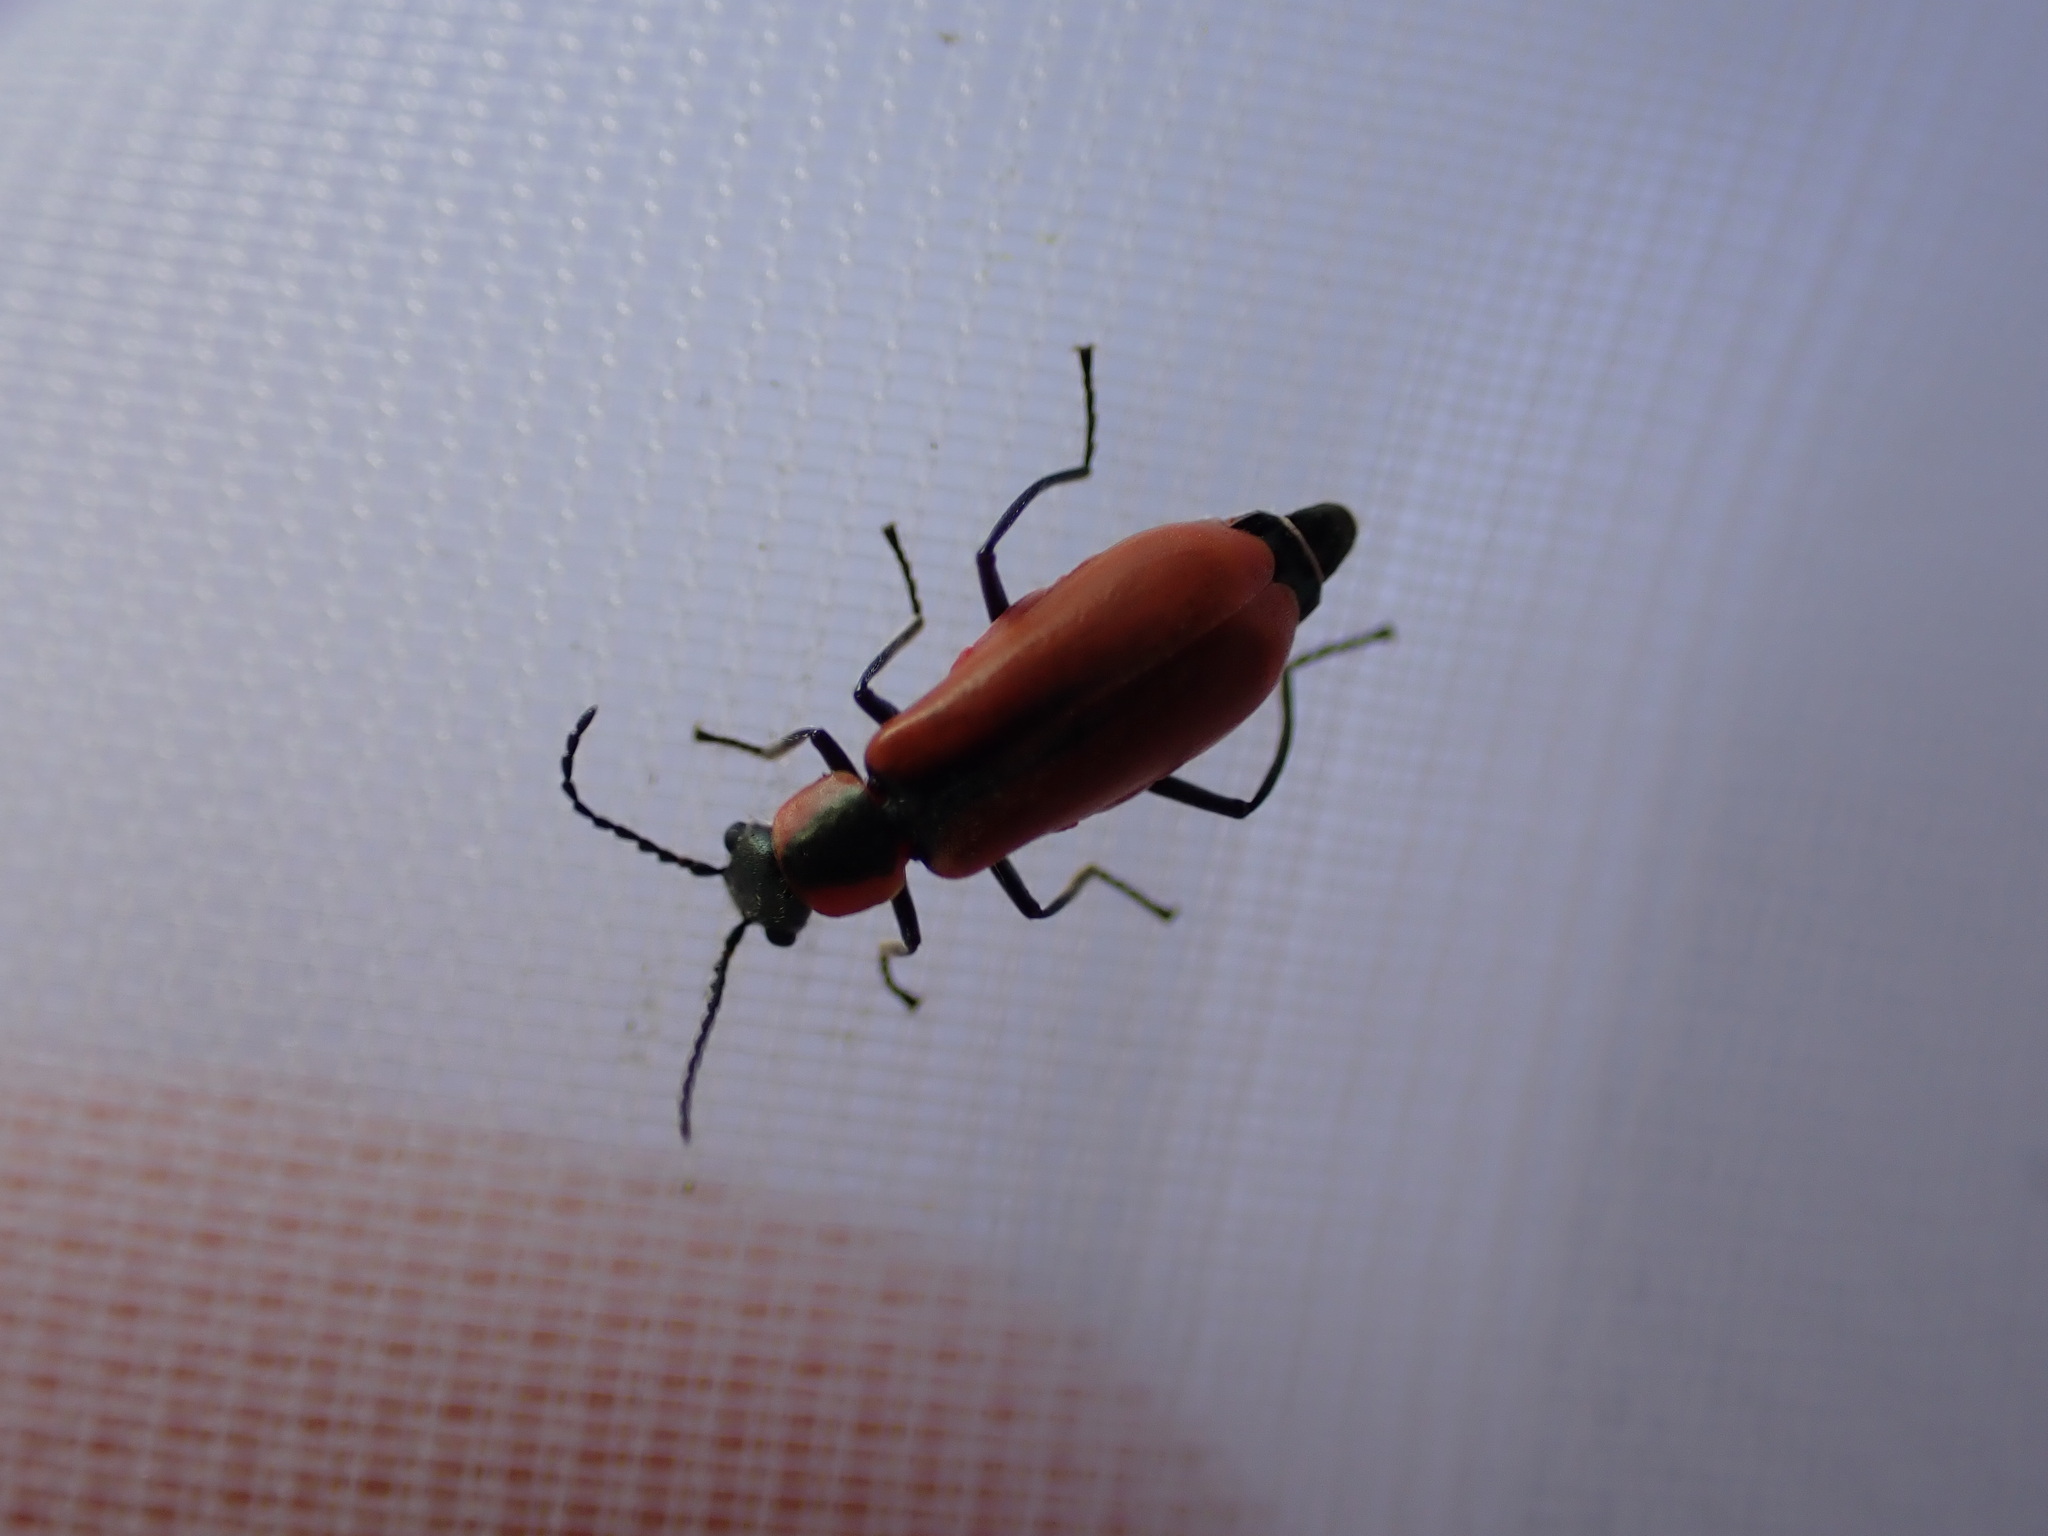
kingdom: Animalia
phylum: Arthropoda
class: Insecta
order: Coleoptera
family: Melyridae
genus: Anthocomus
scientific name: Anthocomus rufus
